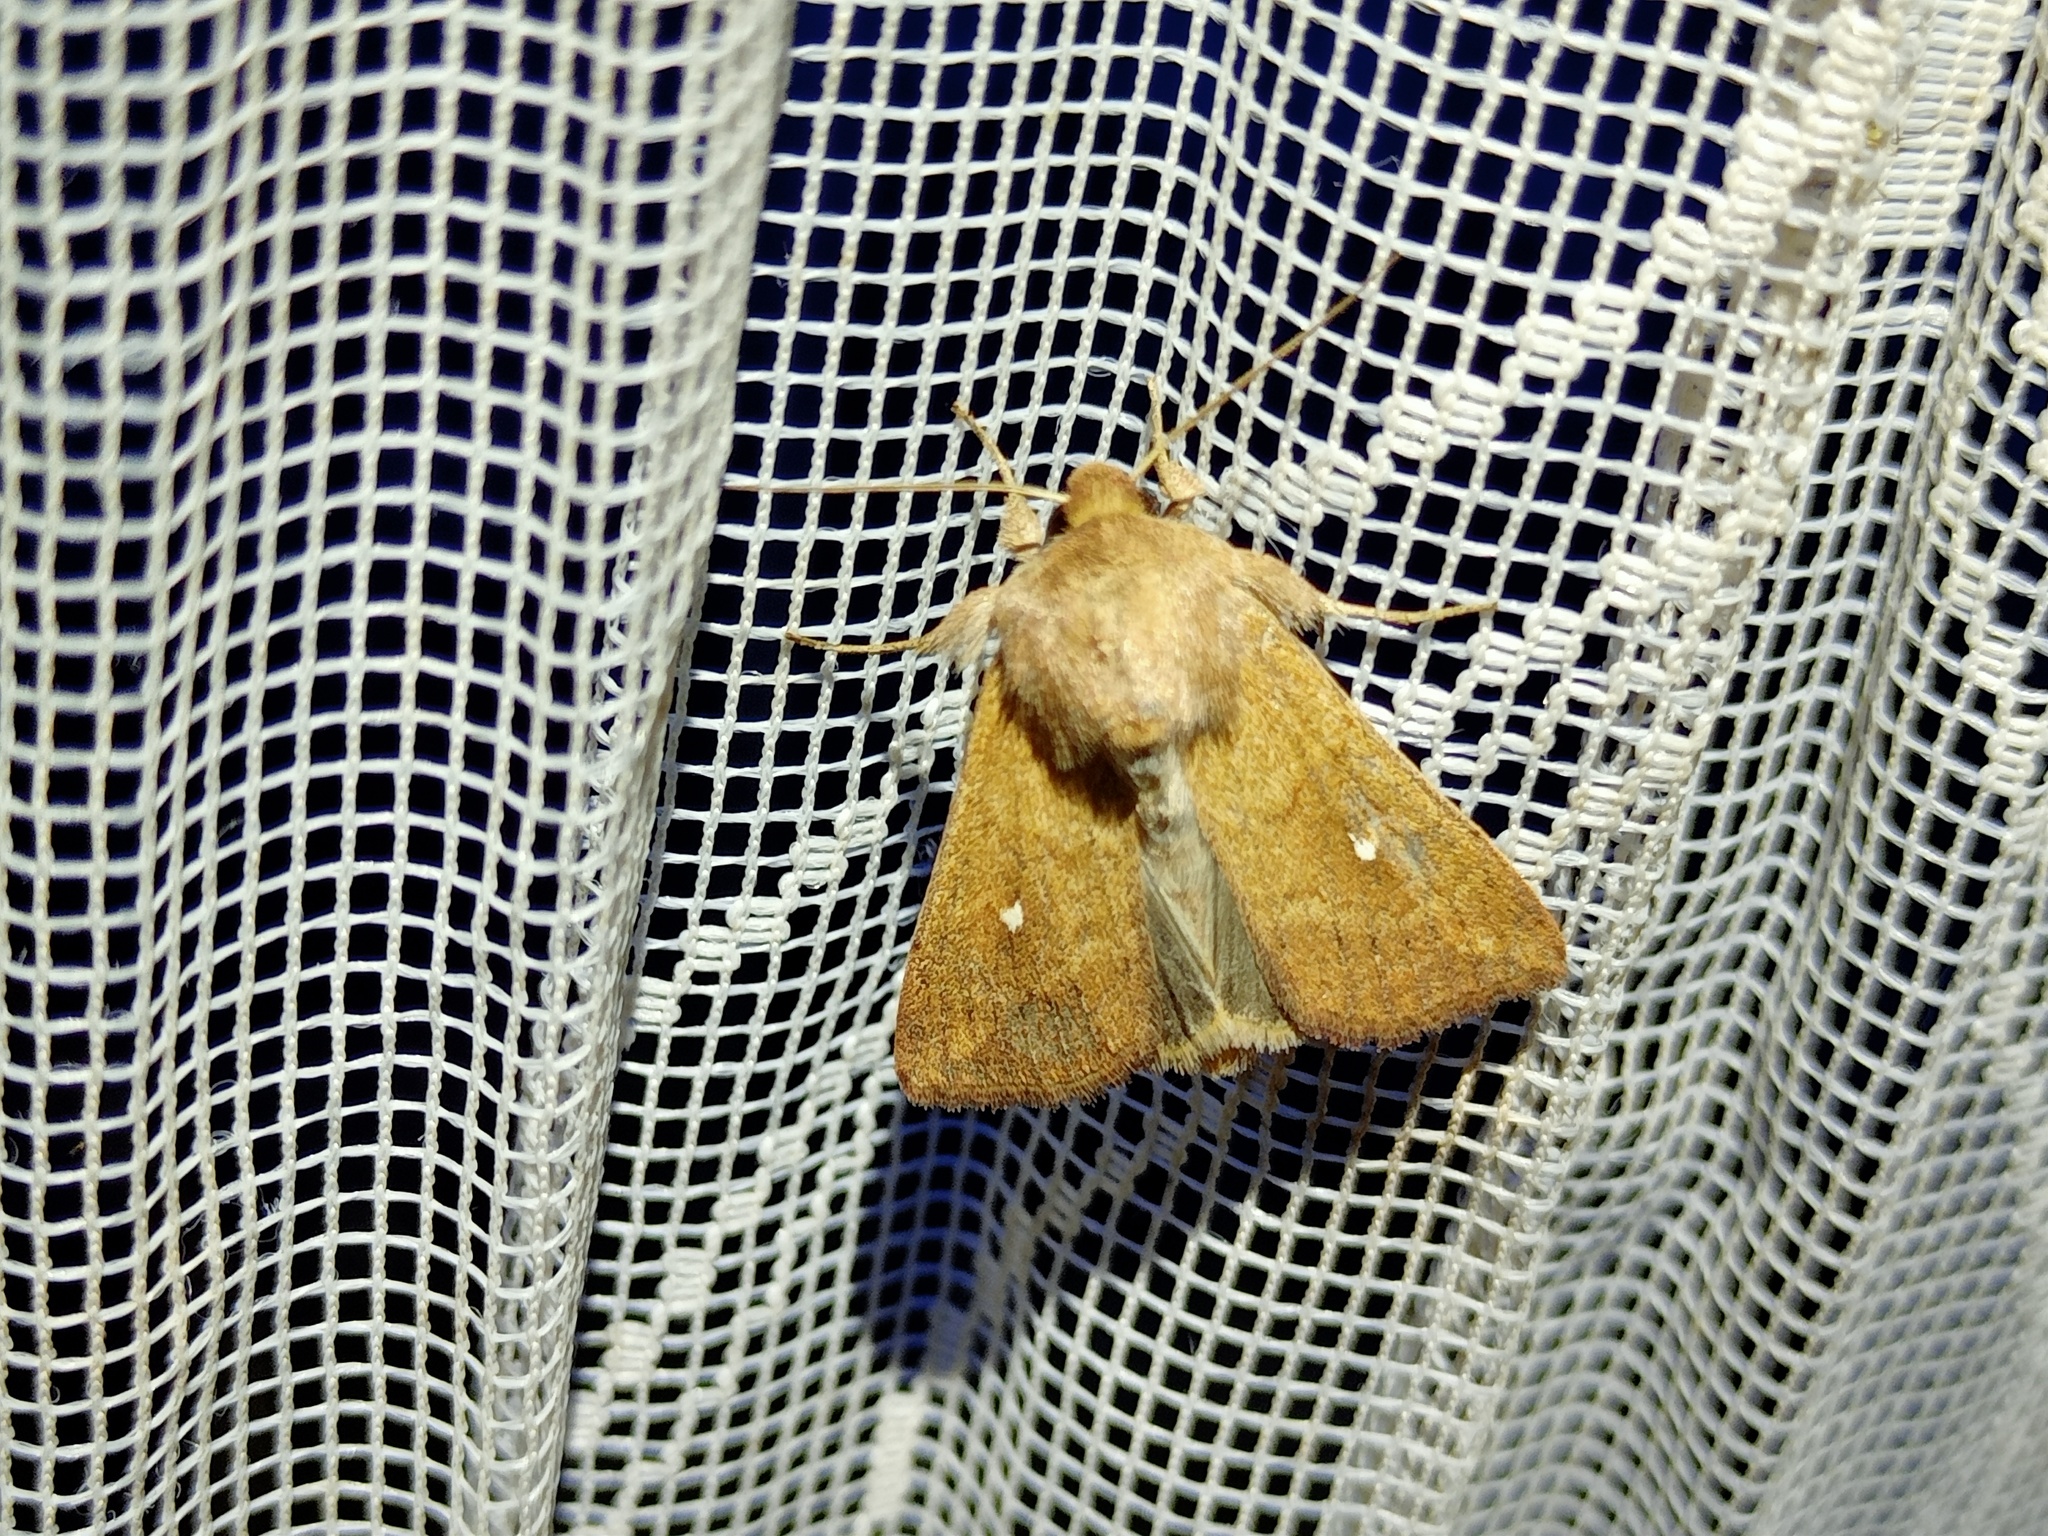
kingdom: Animalia
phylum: Arthropoda
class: Insecta
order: Lepidoptera
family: Noctuidae
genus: Mythimna
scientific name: Mythimna albipuncta
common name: White-point
